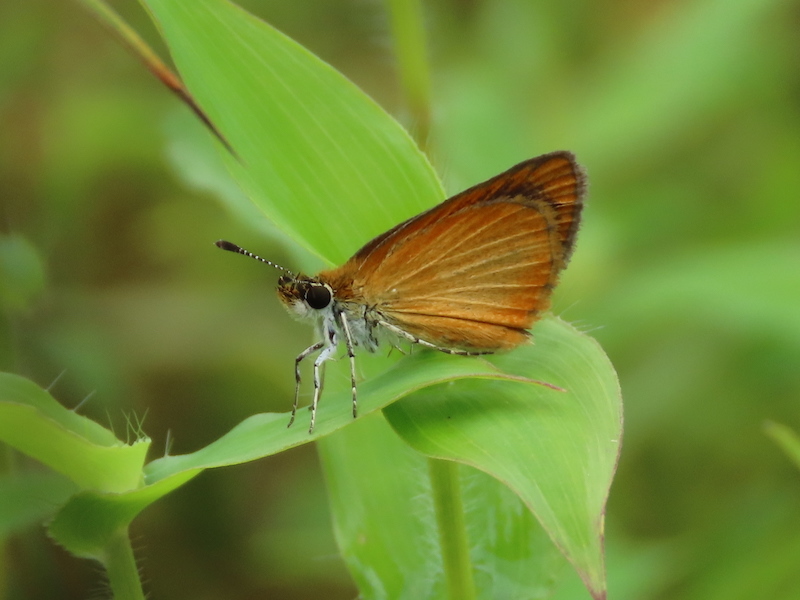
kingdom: Animalia
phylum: Arthropoda
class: Insecta
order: Lepidoptera
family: Hesperiidae
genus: Ancyloxypha
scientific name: Ancyloxypha numitor
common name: Least skipper
